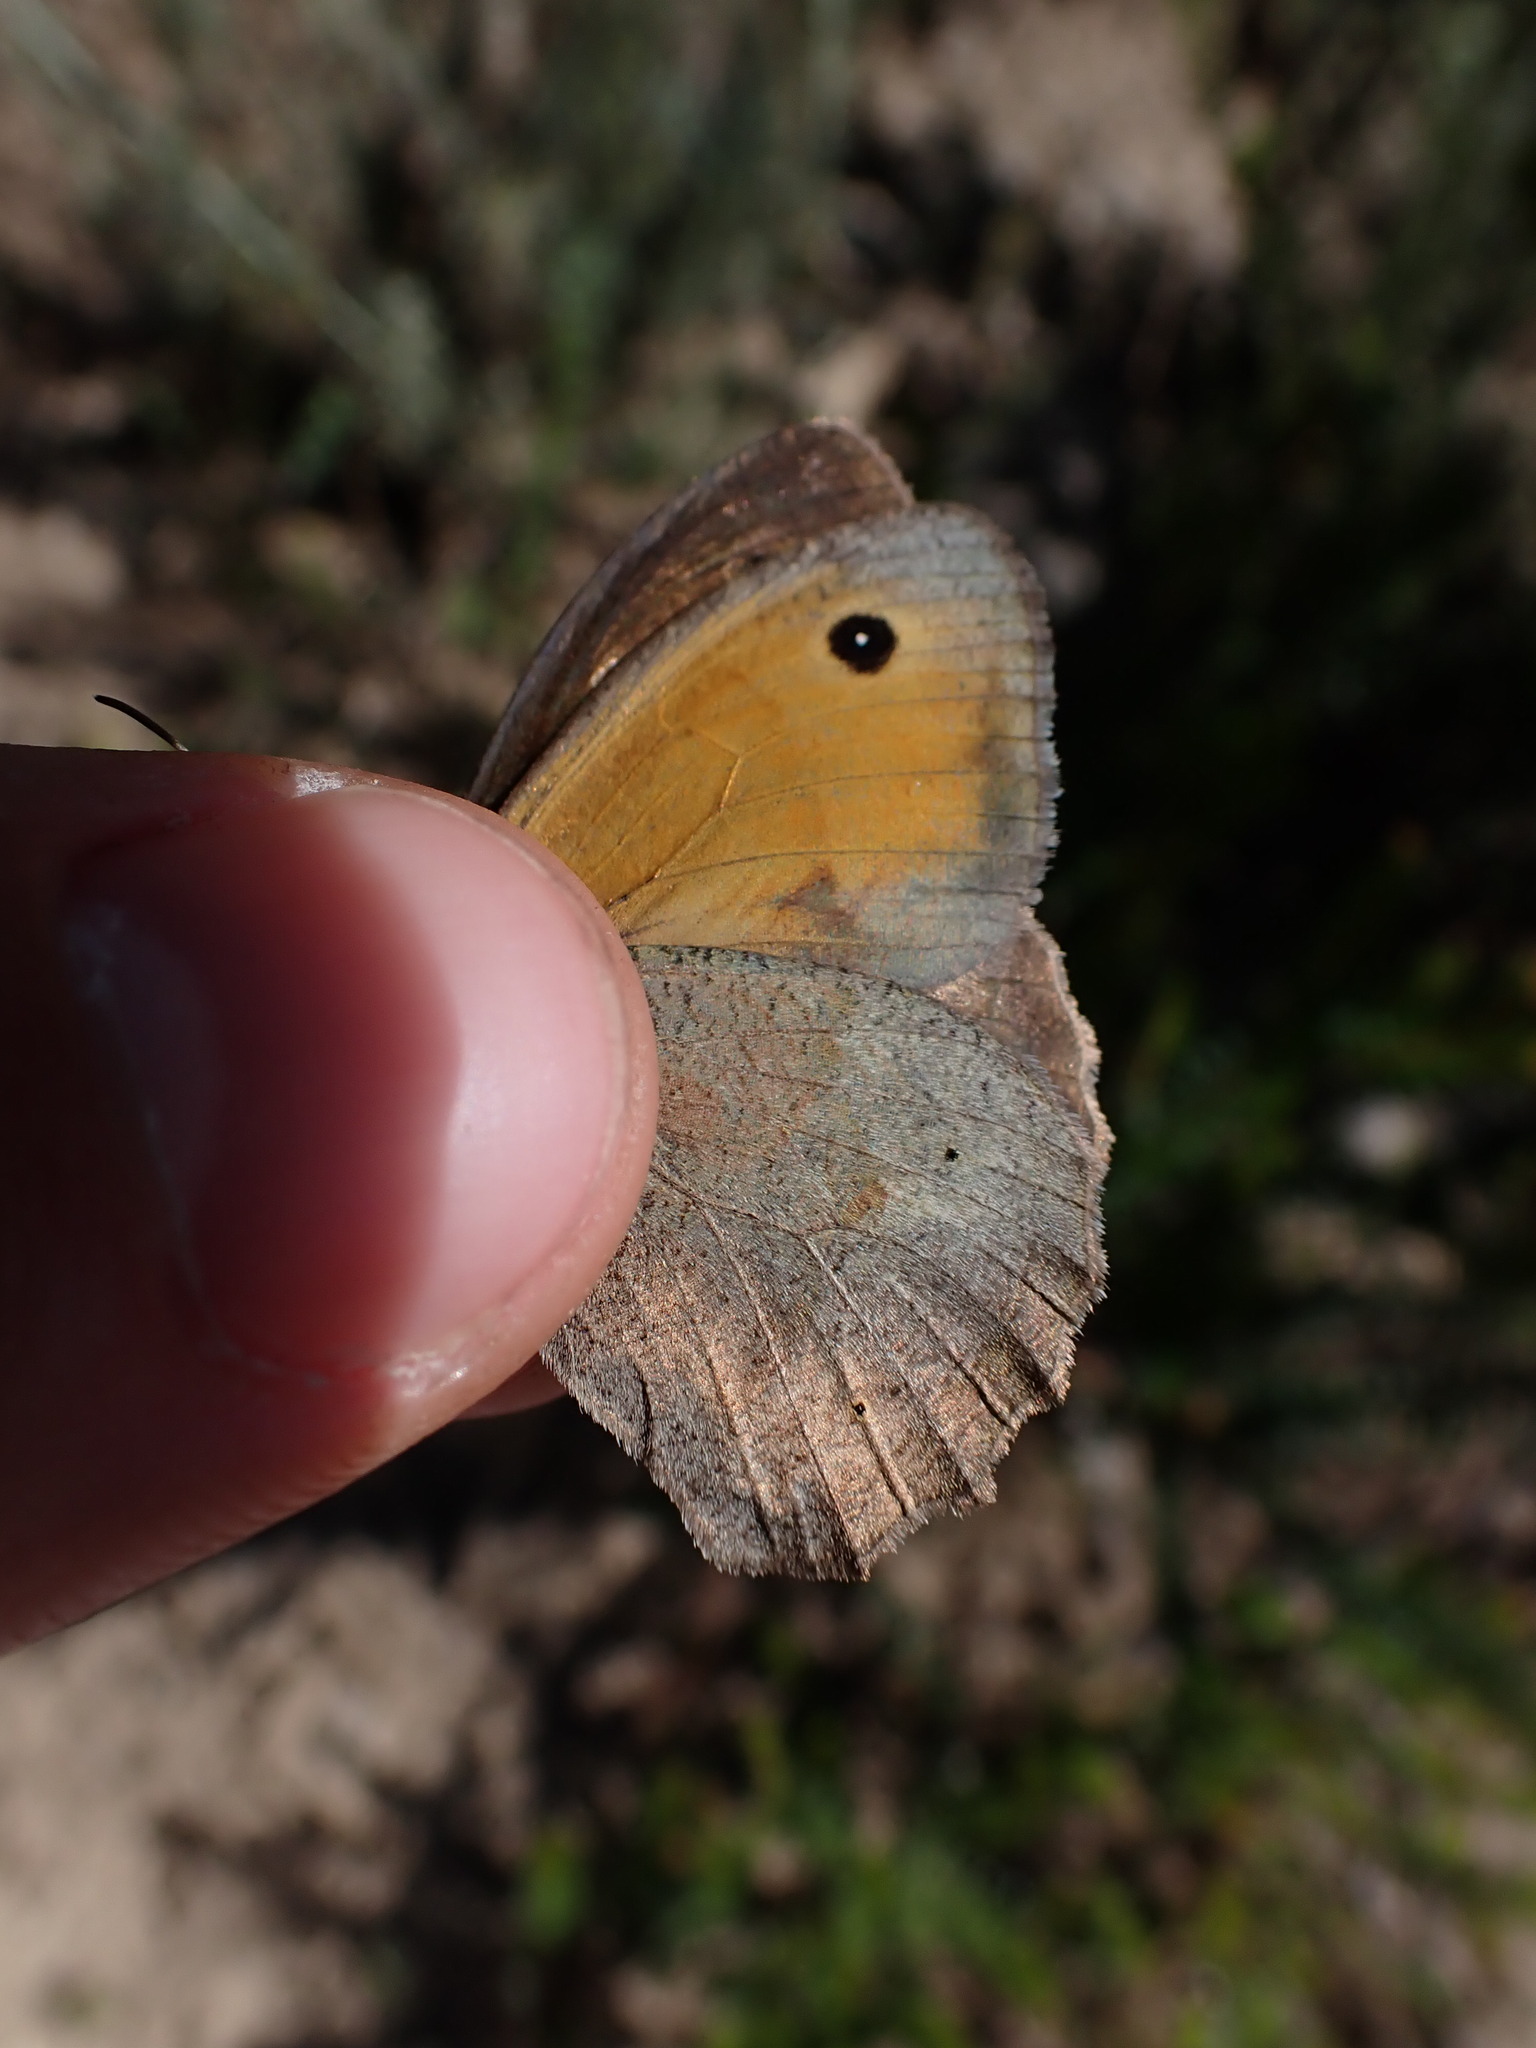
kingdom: Animalia
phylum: Arthropoda
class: Insecta
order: Lepidoptera
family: Nymphalidae
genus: Maniola
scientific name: Maniola jurtina
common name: Meadow brown
